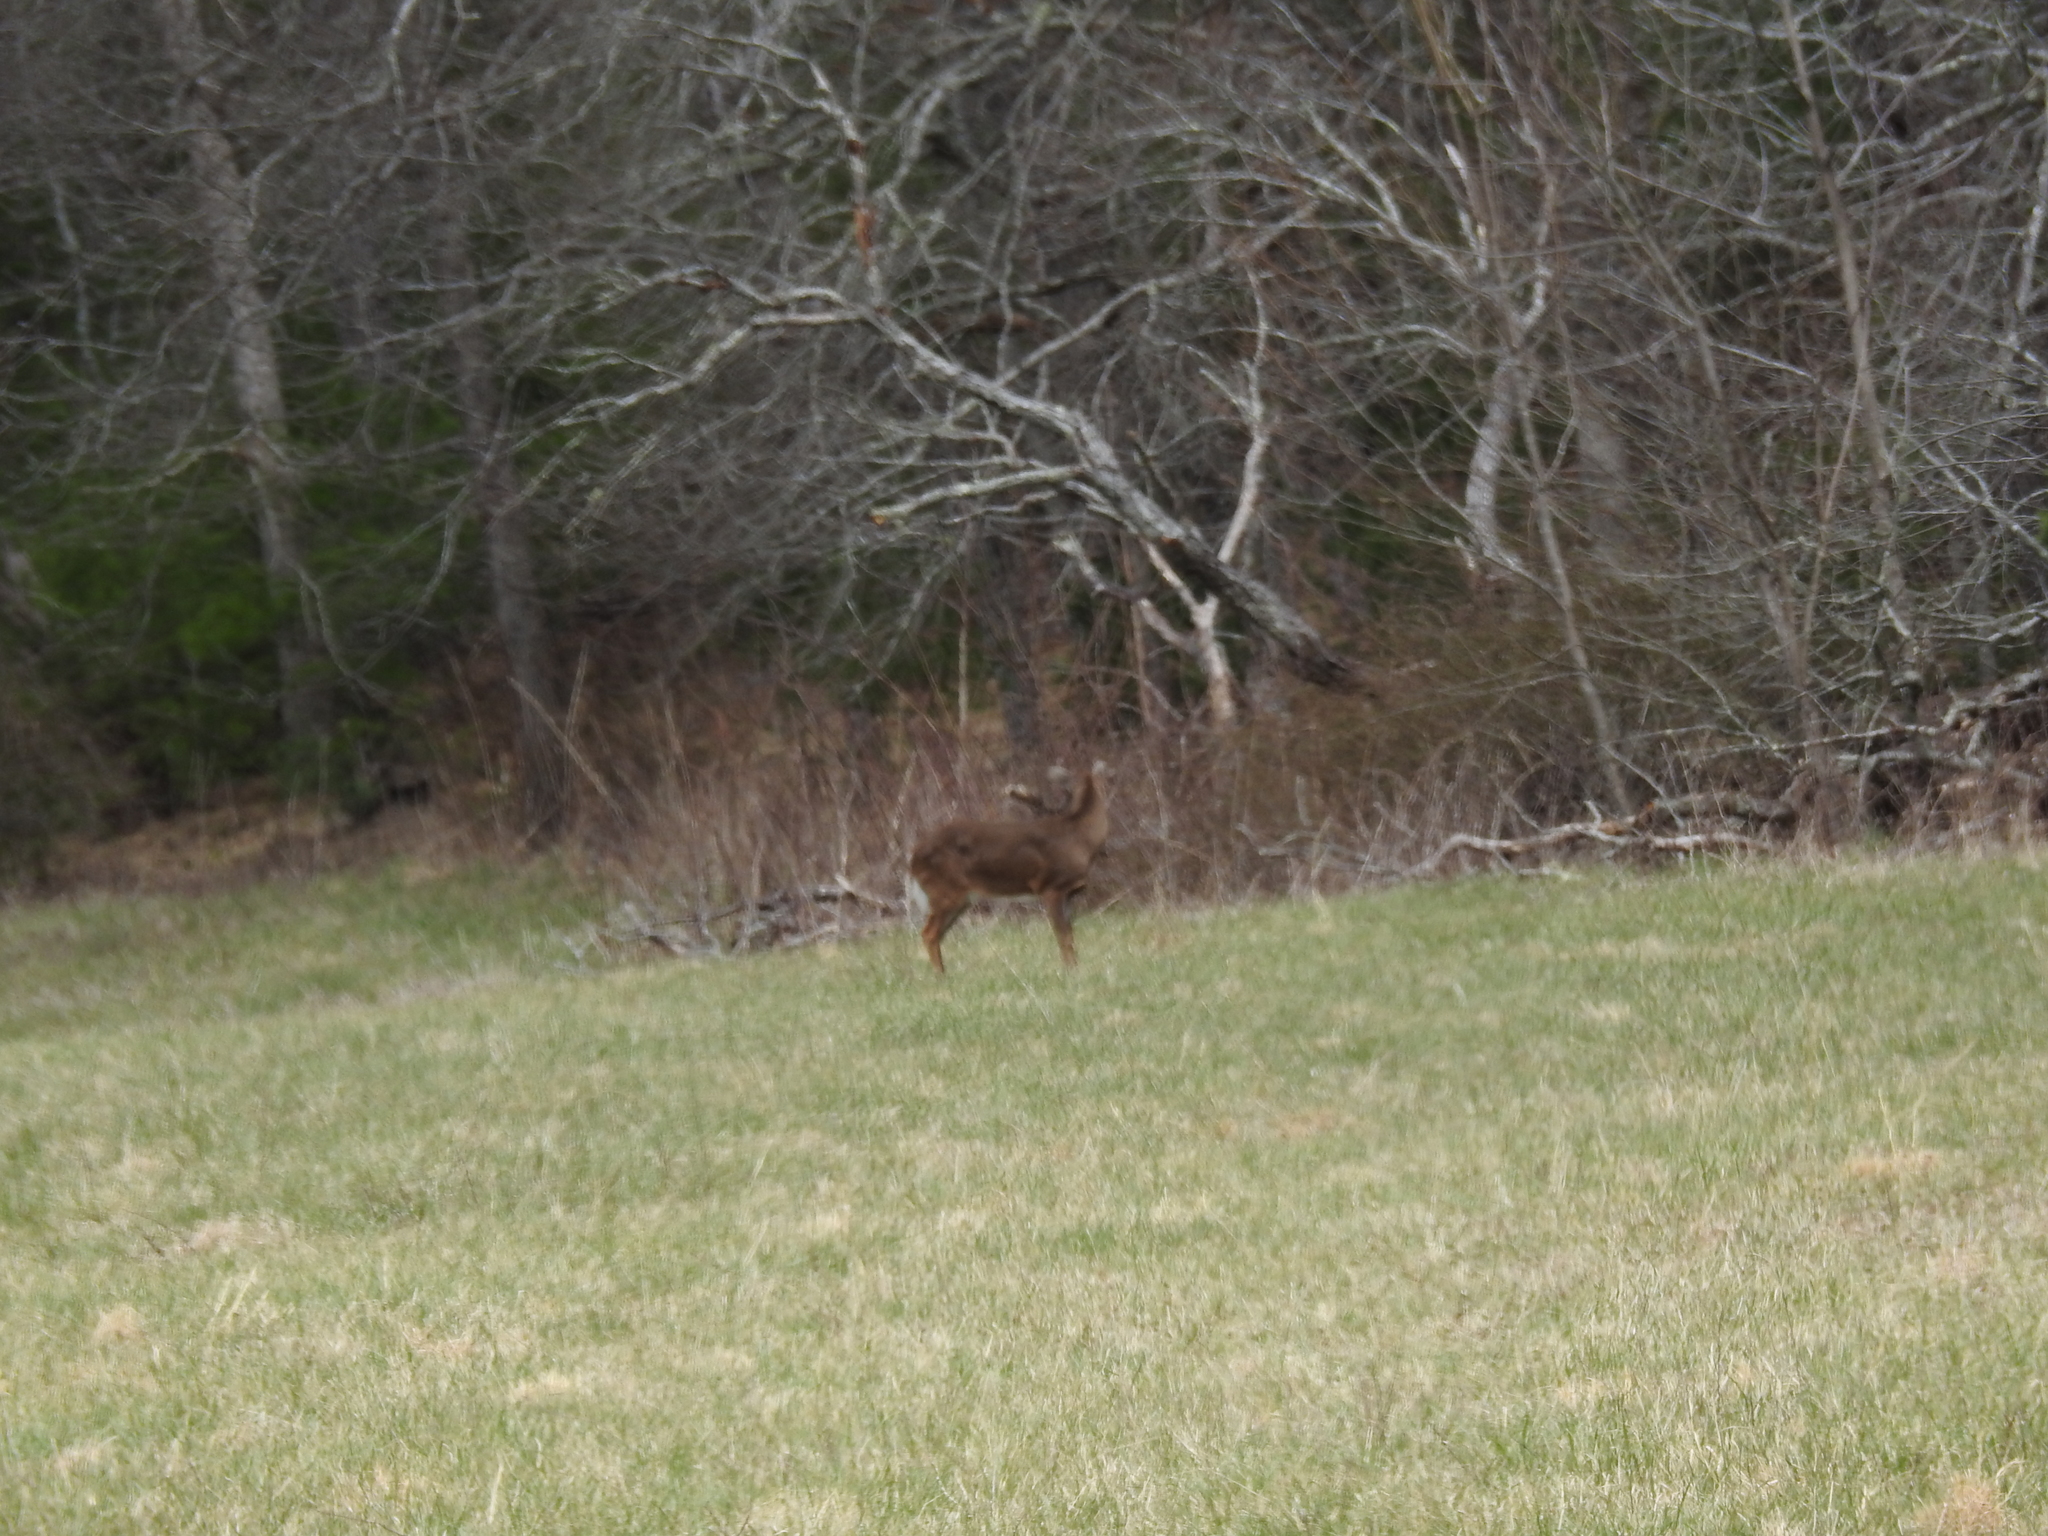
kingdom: Animalia
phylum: Chordata
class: Mammalia
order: Artiodactyla
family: Cervidae
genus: Odocoileus
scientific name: Odocoileus virginianus
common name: White-tailed deer
